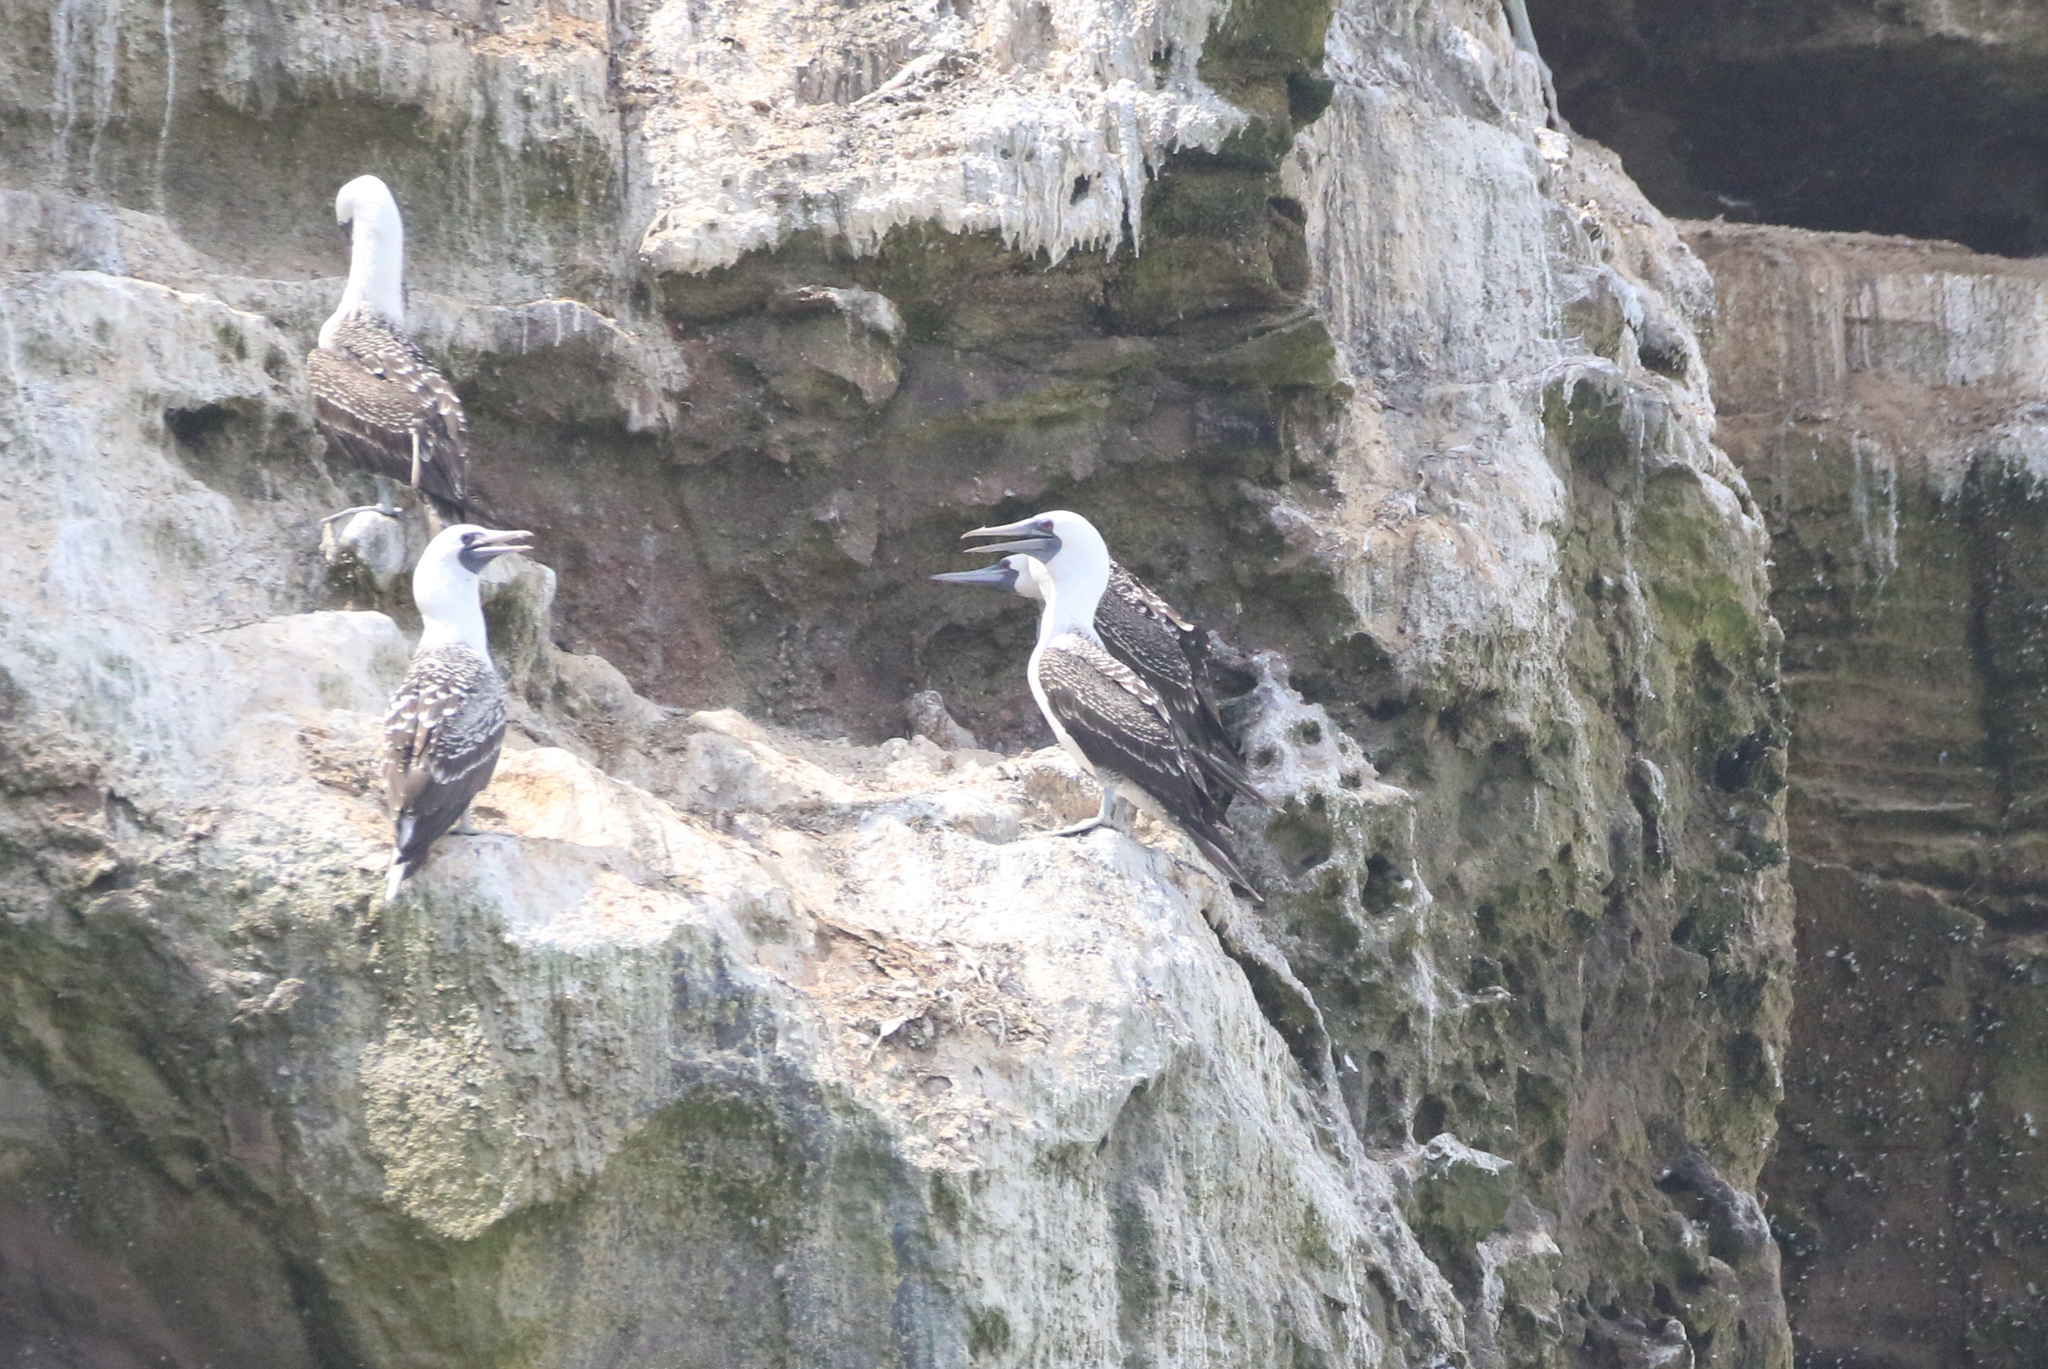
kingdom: Animalia
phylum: Chordata
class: Aves
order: Suliformes
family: Sulidae
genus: Sula
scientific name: Sula variegata
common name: Peruvian booby
